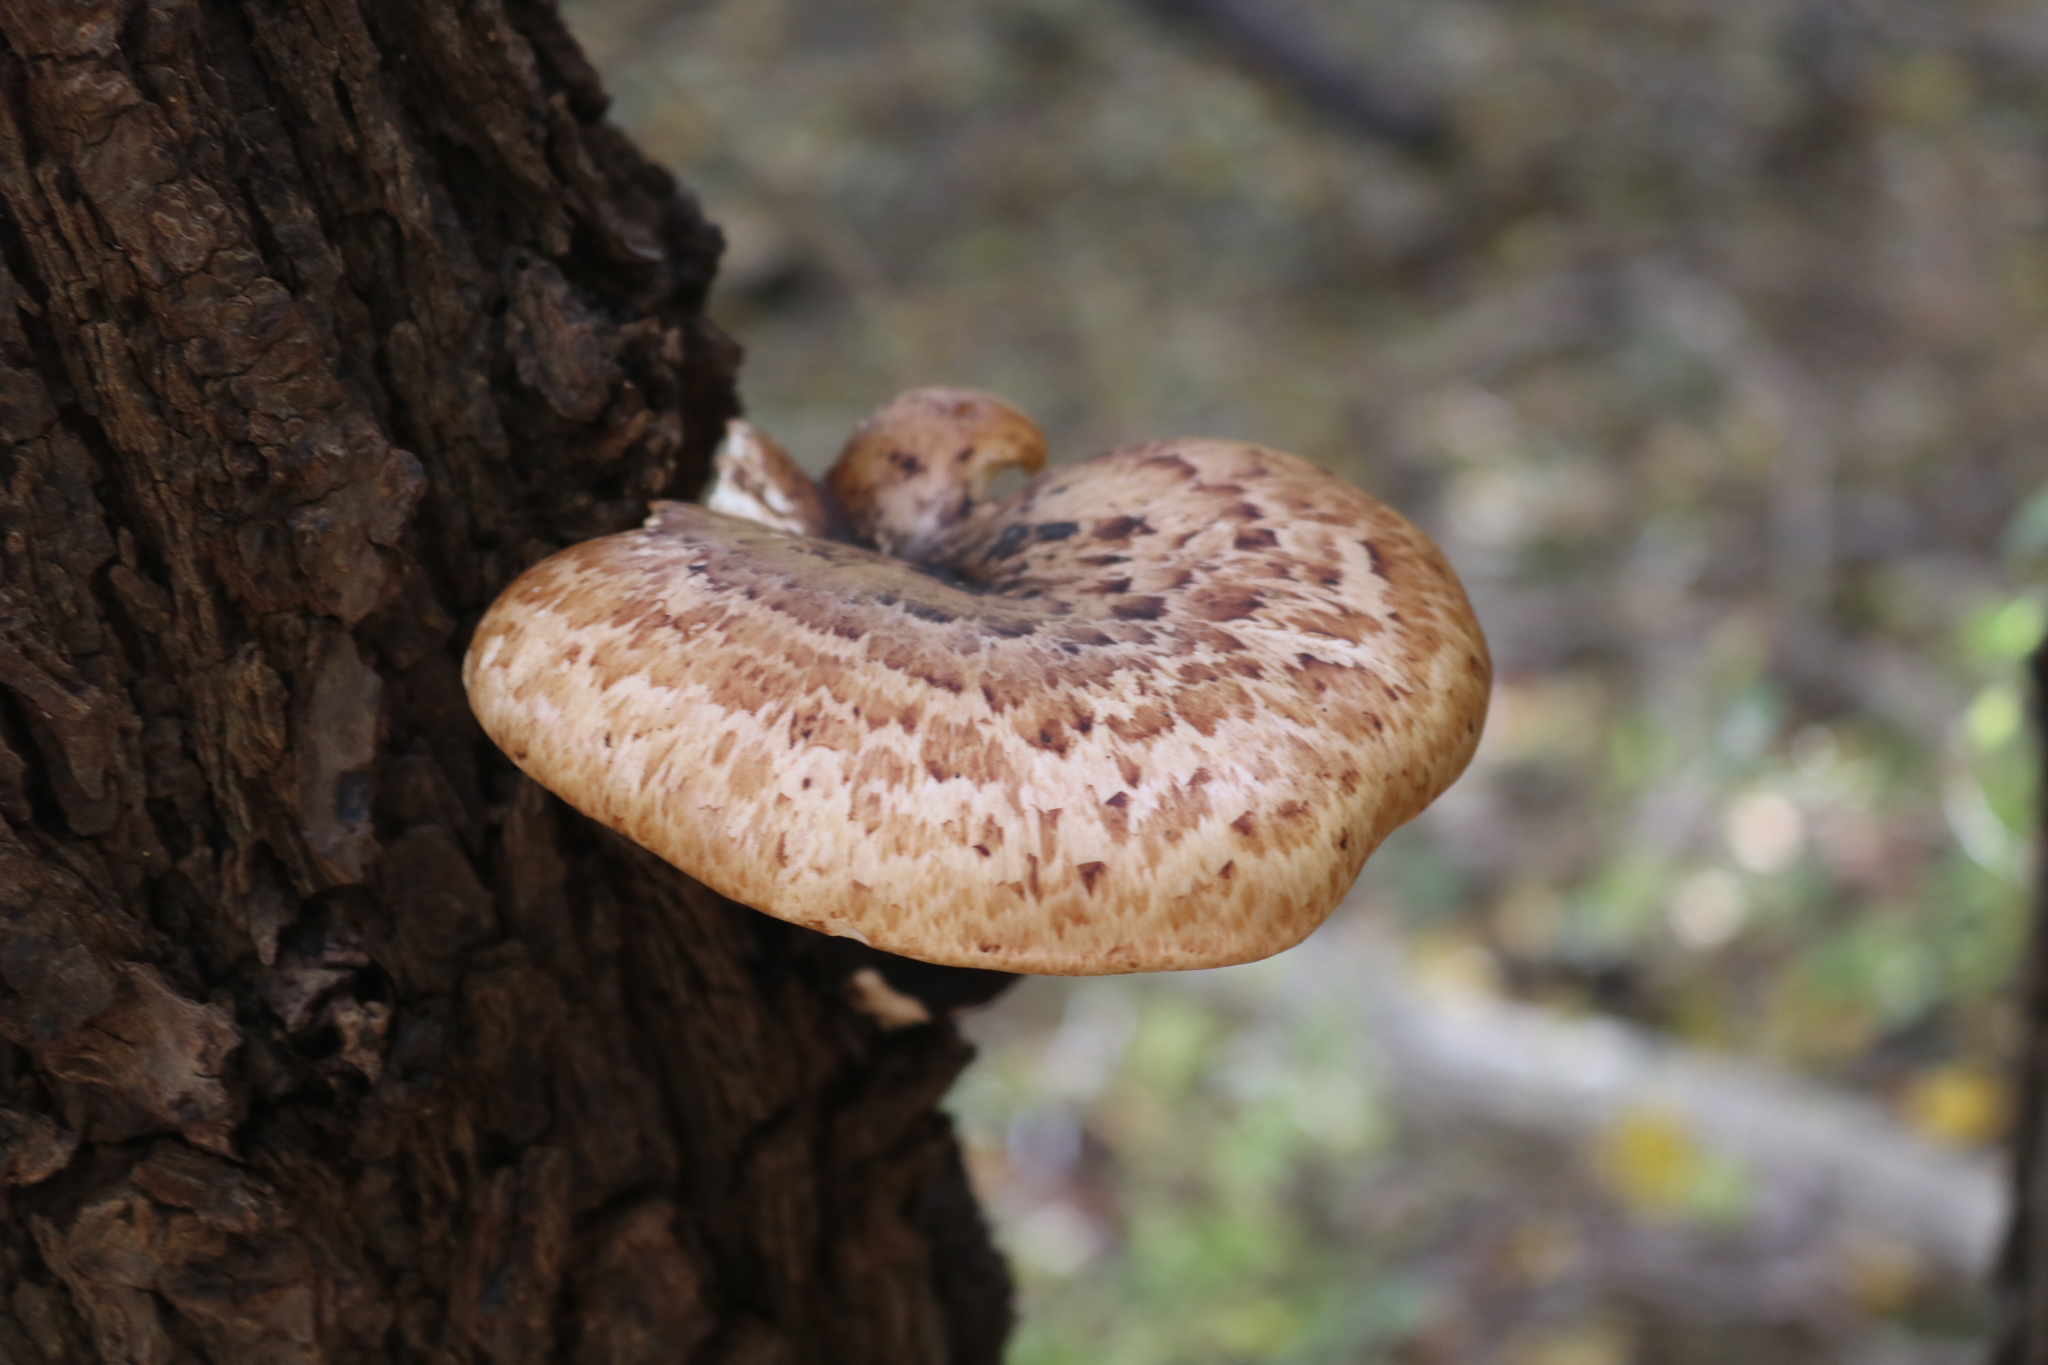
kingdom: Fungi
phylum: Basidiomycota
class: Agaricomycetes
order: Polyporales
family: Polyporaceae
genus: Cerioporus
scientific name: Cerioporus squamosus
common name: Dryad's saddle
